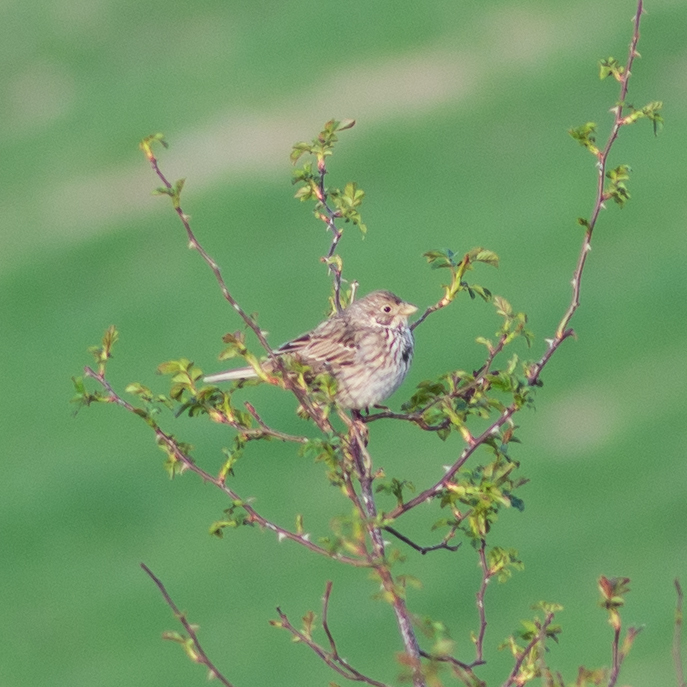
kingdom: Animalia
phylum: Chordata
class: Aves
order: Passeriformes
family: Emberizidae
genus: Emberiza
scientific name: Emberiza calandra
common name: Corn bunting
